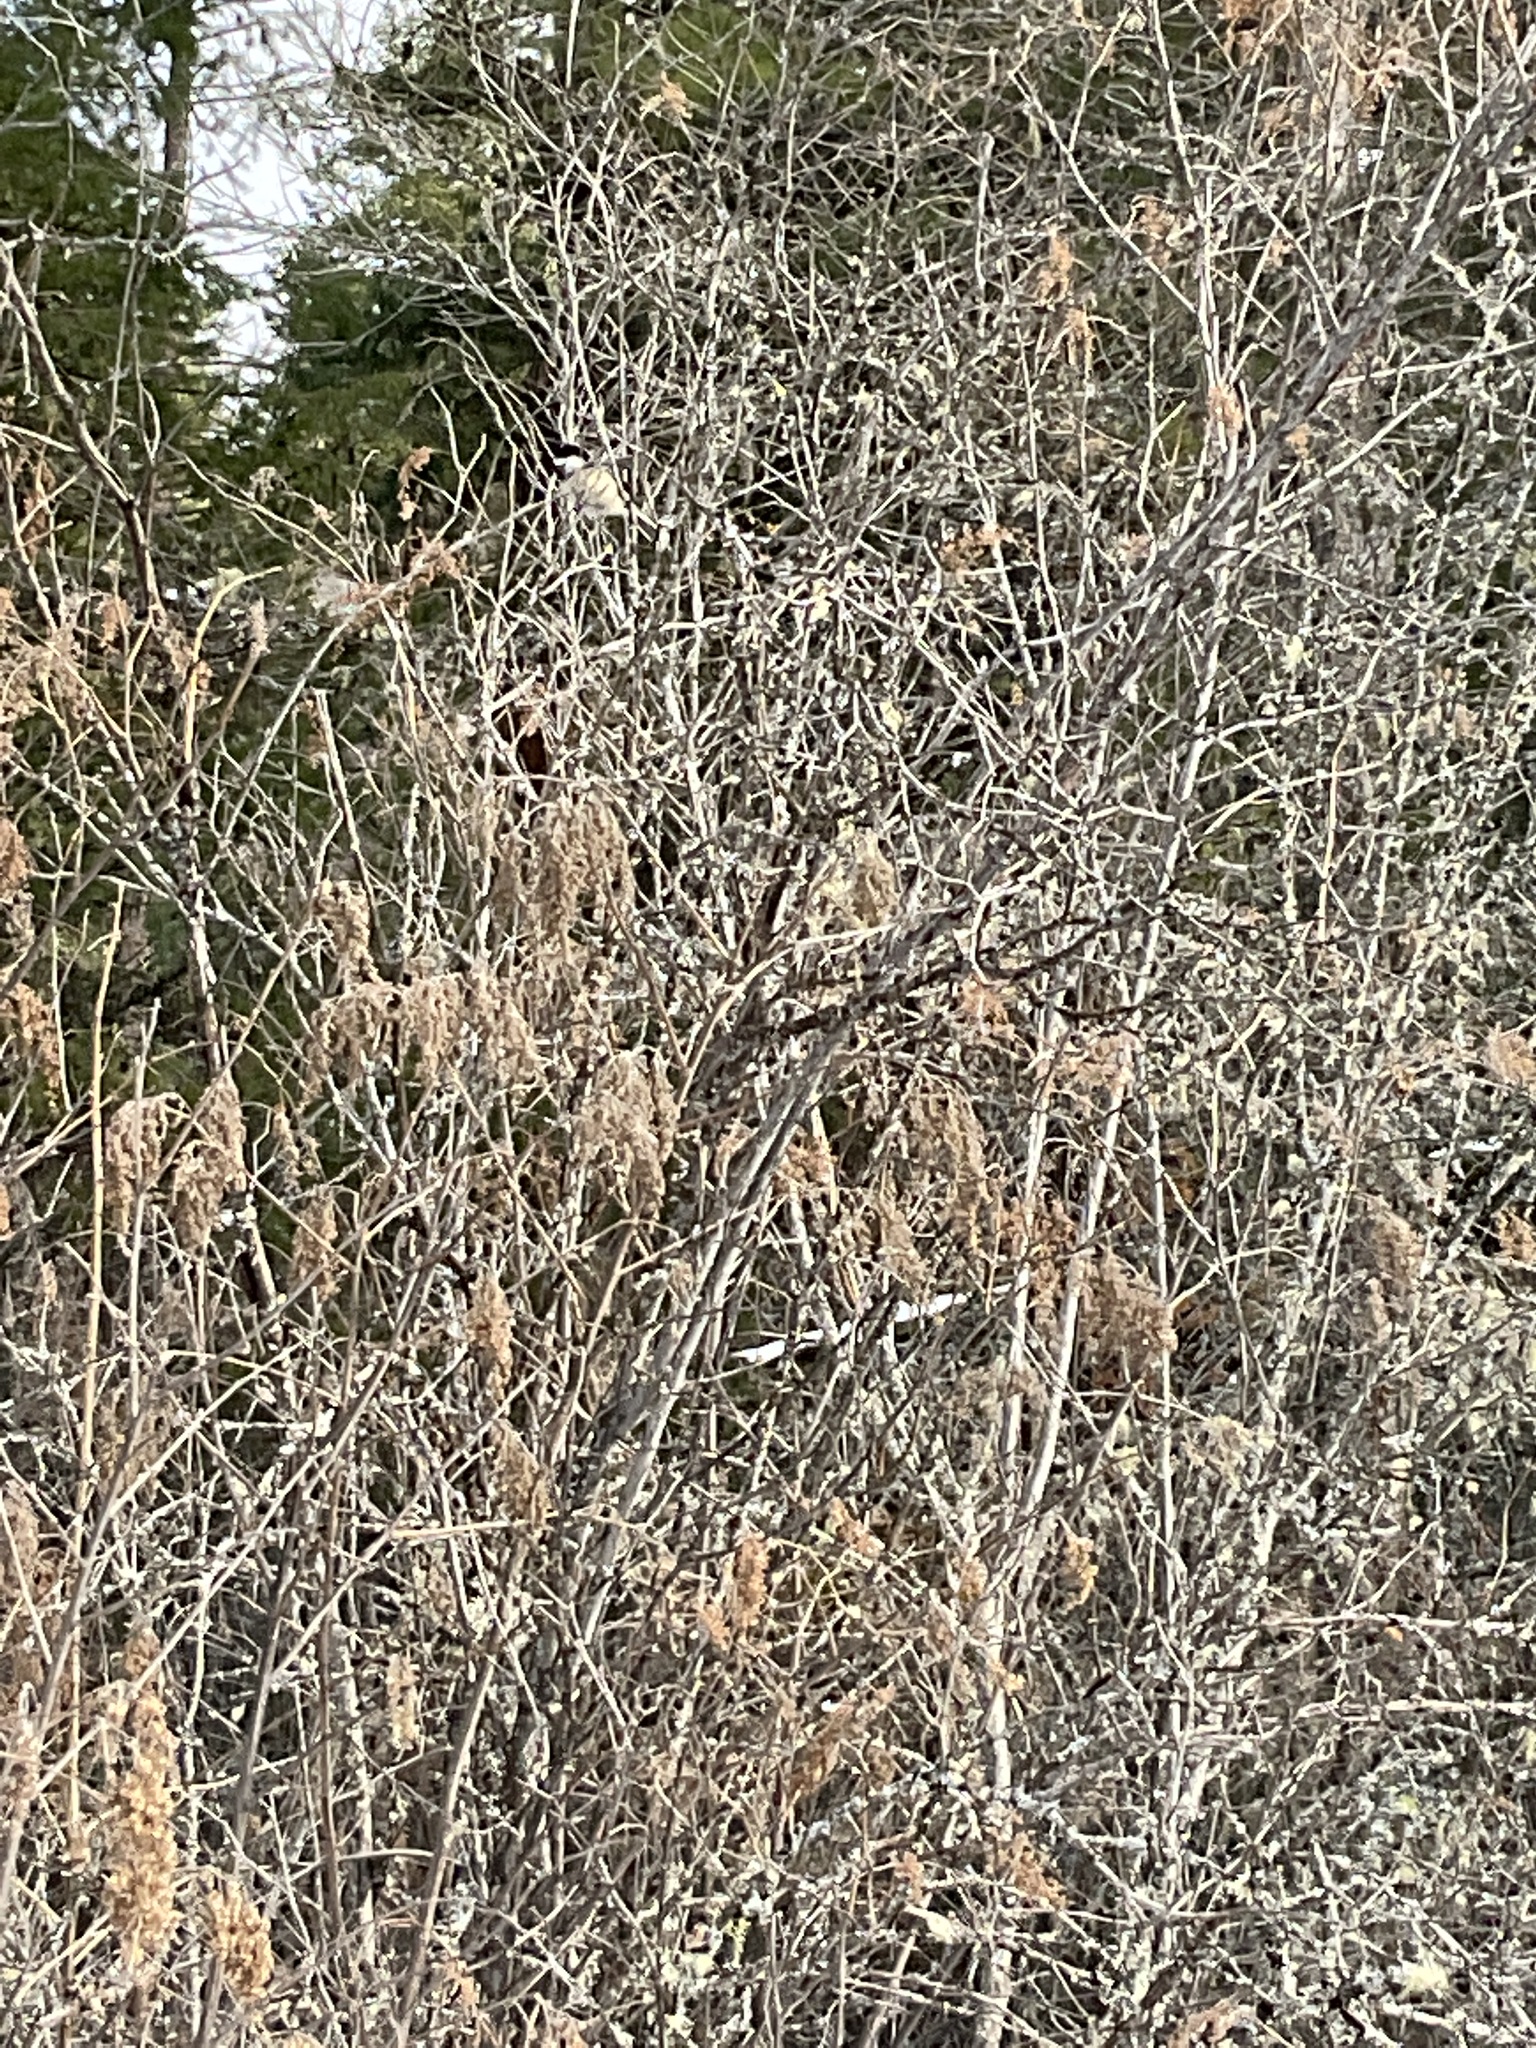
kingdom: Plantae
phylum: Tracheophyta
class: Magnoliopsida
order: Rosales
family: Rosaceae
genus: Holodiscus
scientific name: Holodiscus discolor
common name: Oceanspray
